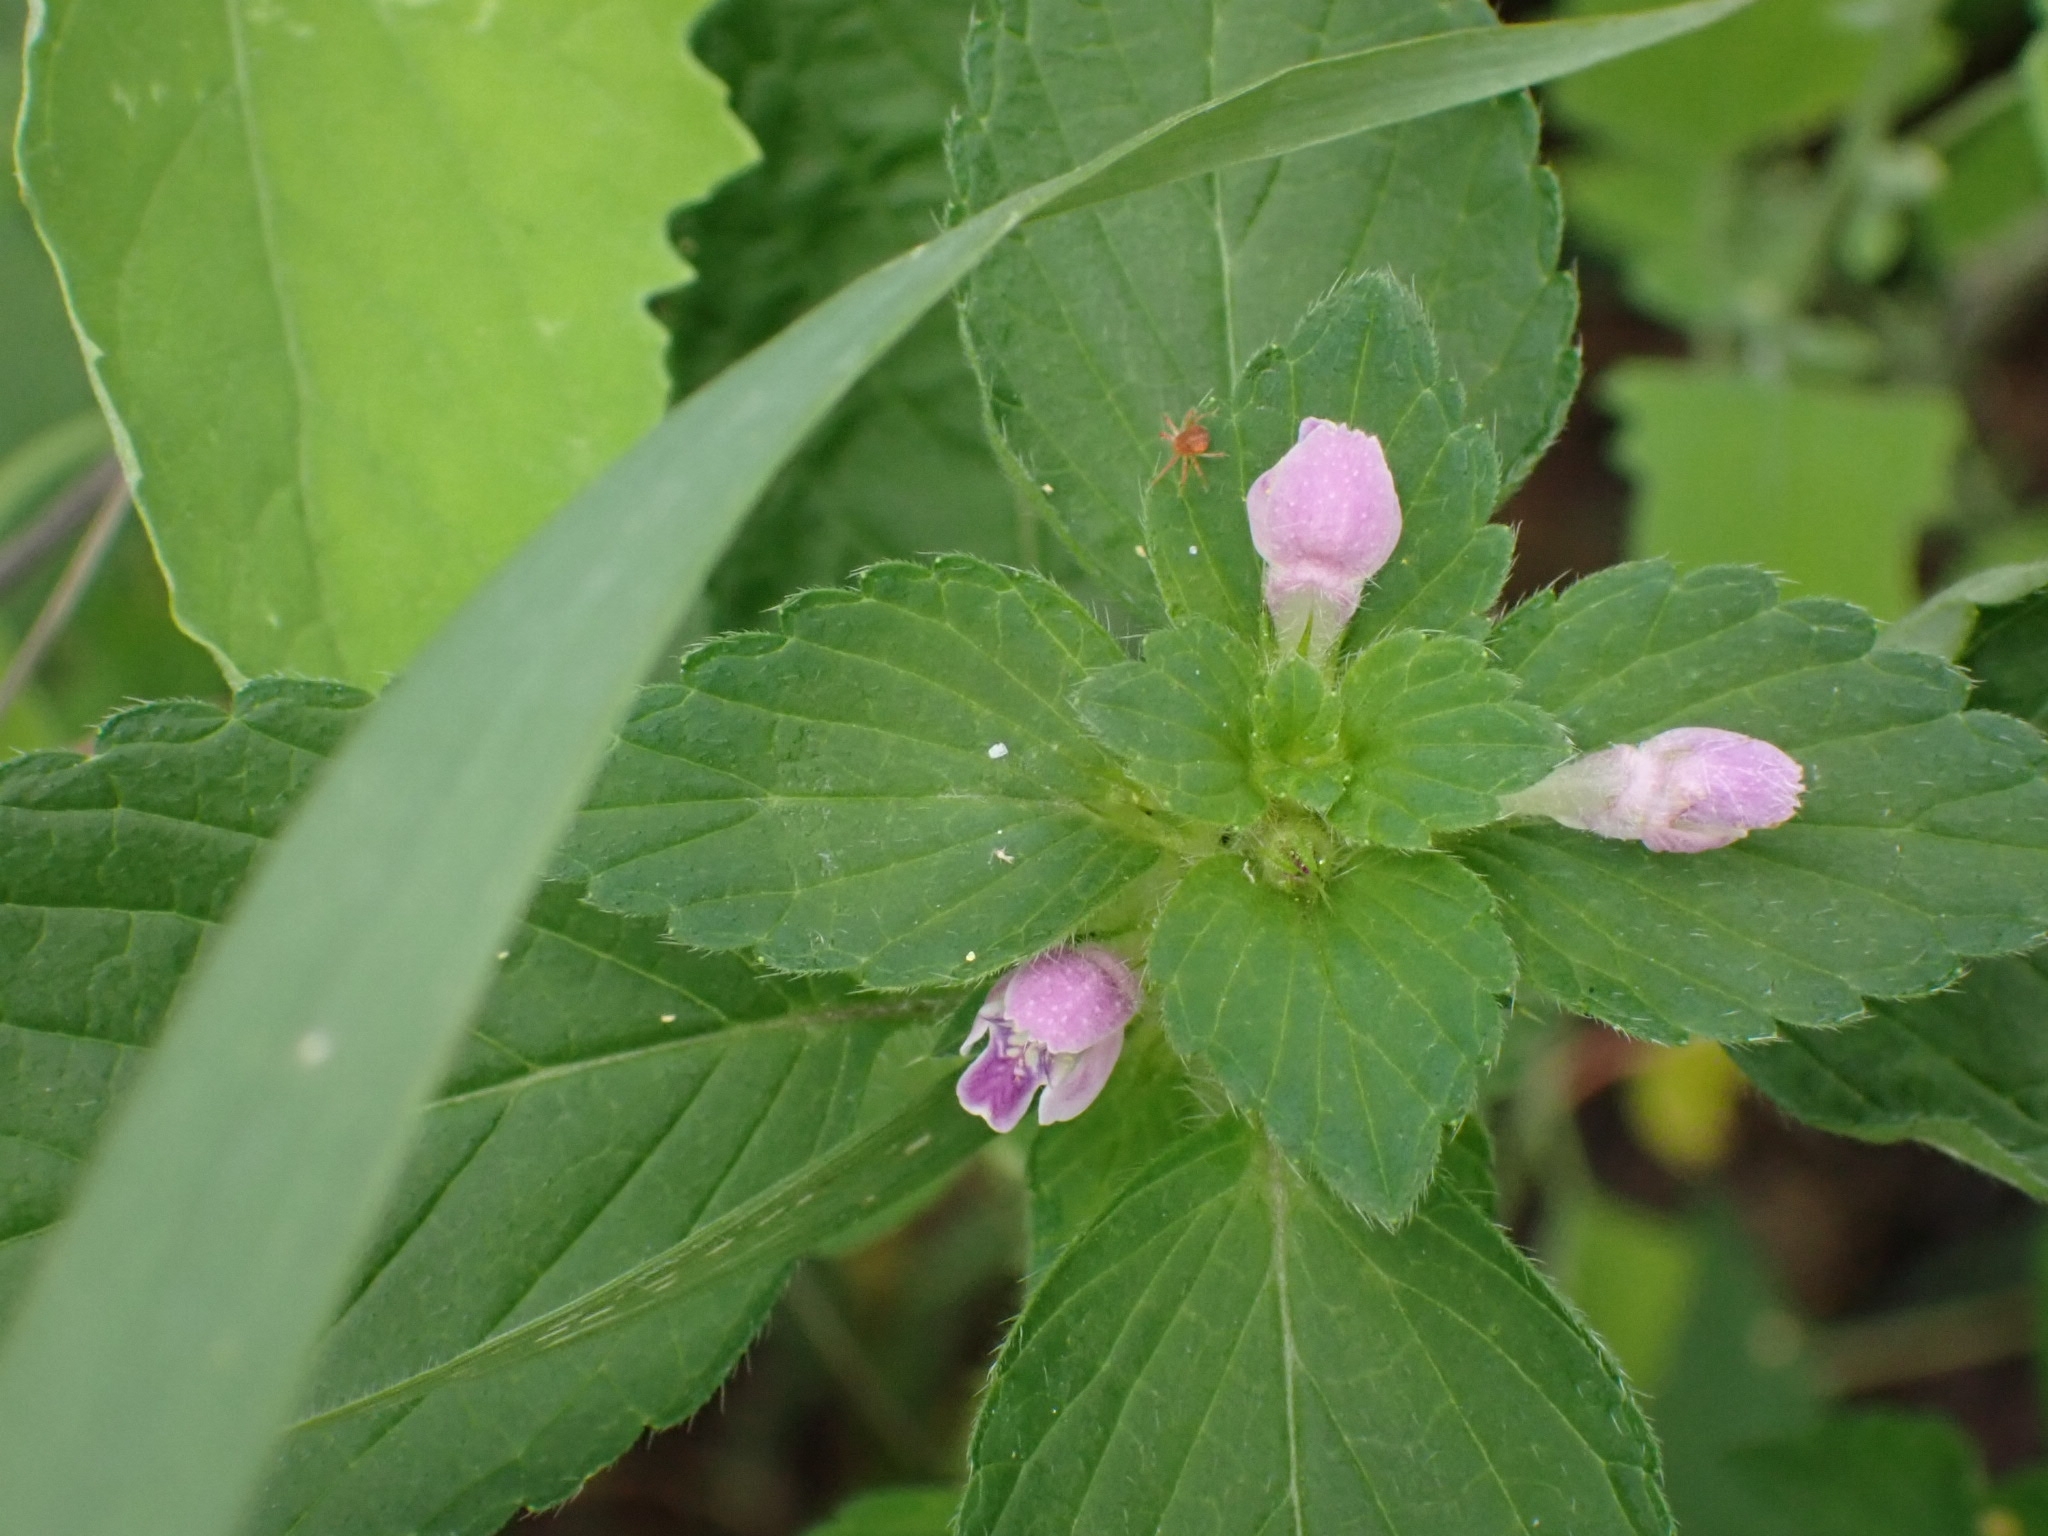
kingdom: Plantae
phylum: Tracheophyta
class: Magnoliopsida
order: Lamiales
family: Lamiaceae
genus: Galeopsis
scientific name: Galeopsis bifida
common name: Bifid hemp-nettle
